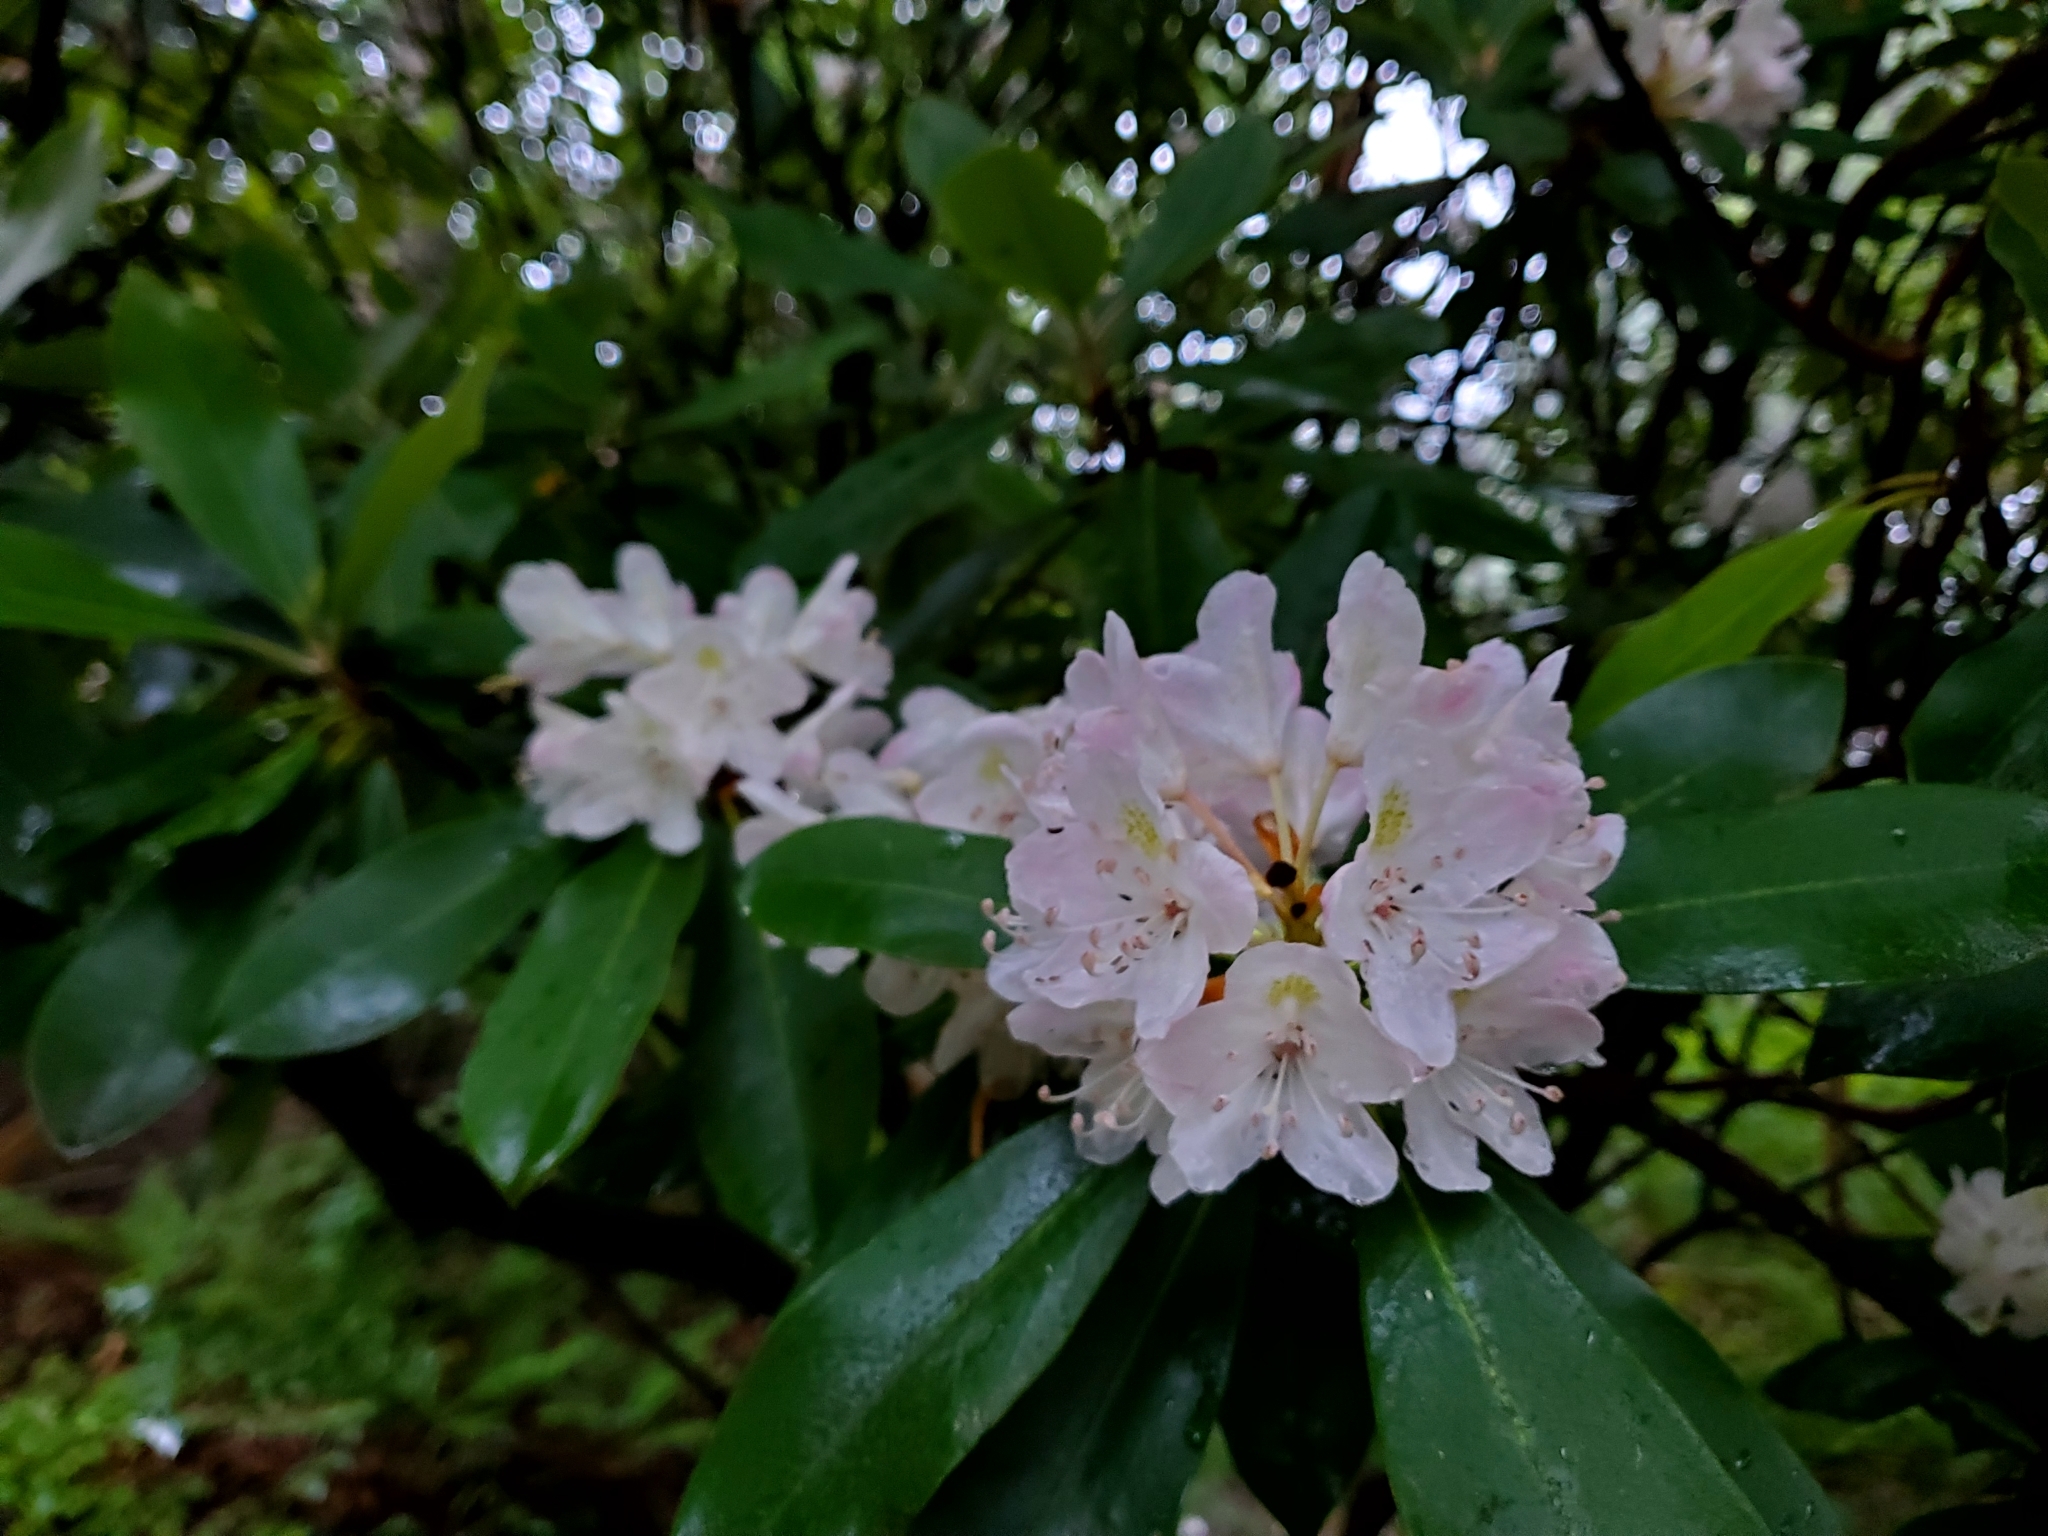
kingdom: Plantae
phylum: Tracheophyta
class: Magnoliopsida
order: Ericales
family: Ericaceae
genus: Rhododendron
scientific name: Rhododendron maximum
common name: Great rhododendron
